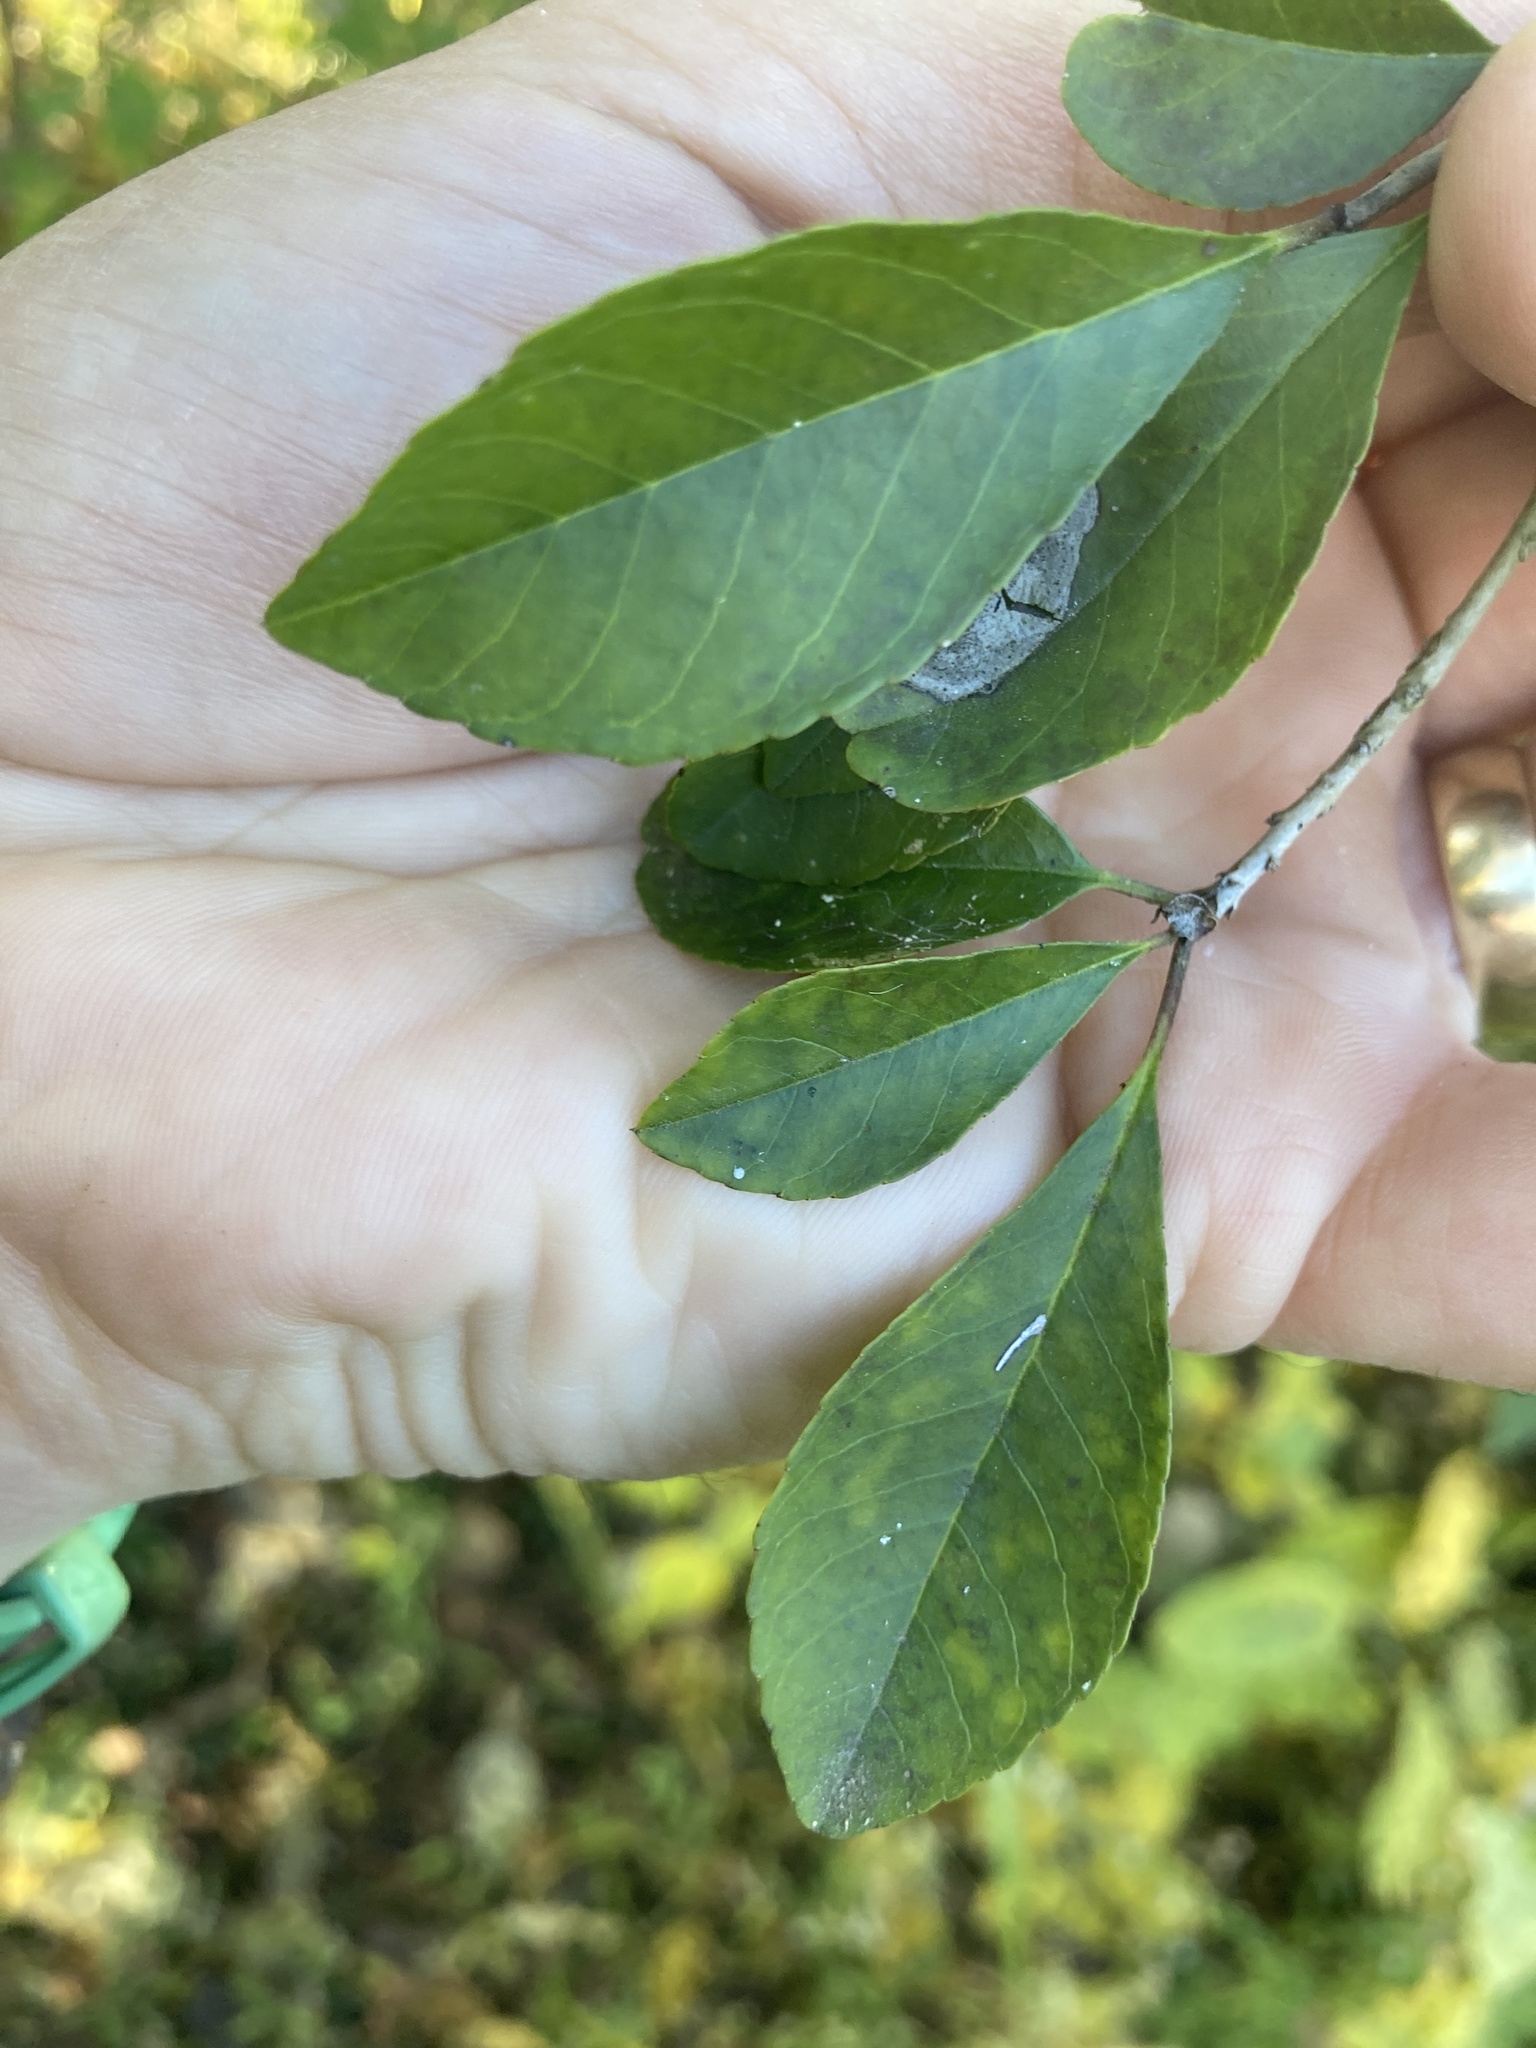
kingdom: Plantae
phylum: Tracheophyta
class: Magnoliopsida
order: Aquifoliales
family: Aquifoliaceae
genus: Ilex
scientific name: Ilex decidua
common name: Possum-haw
